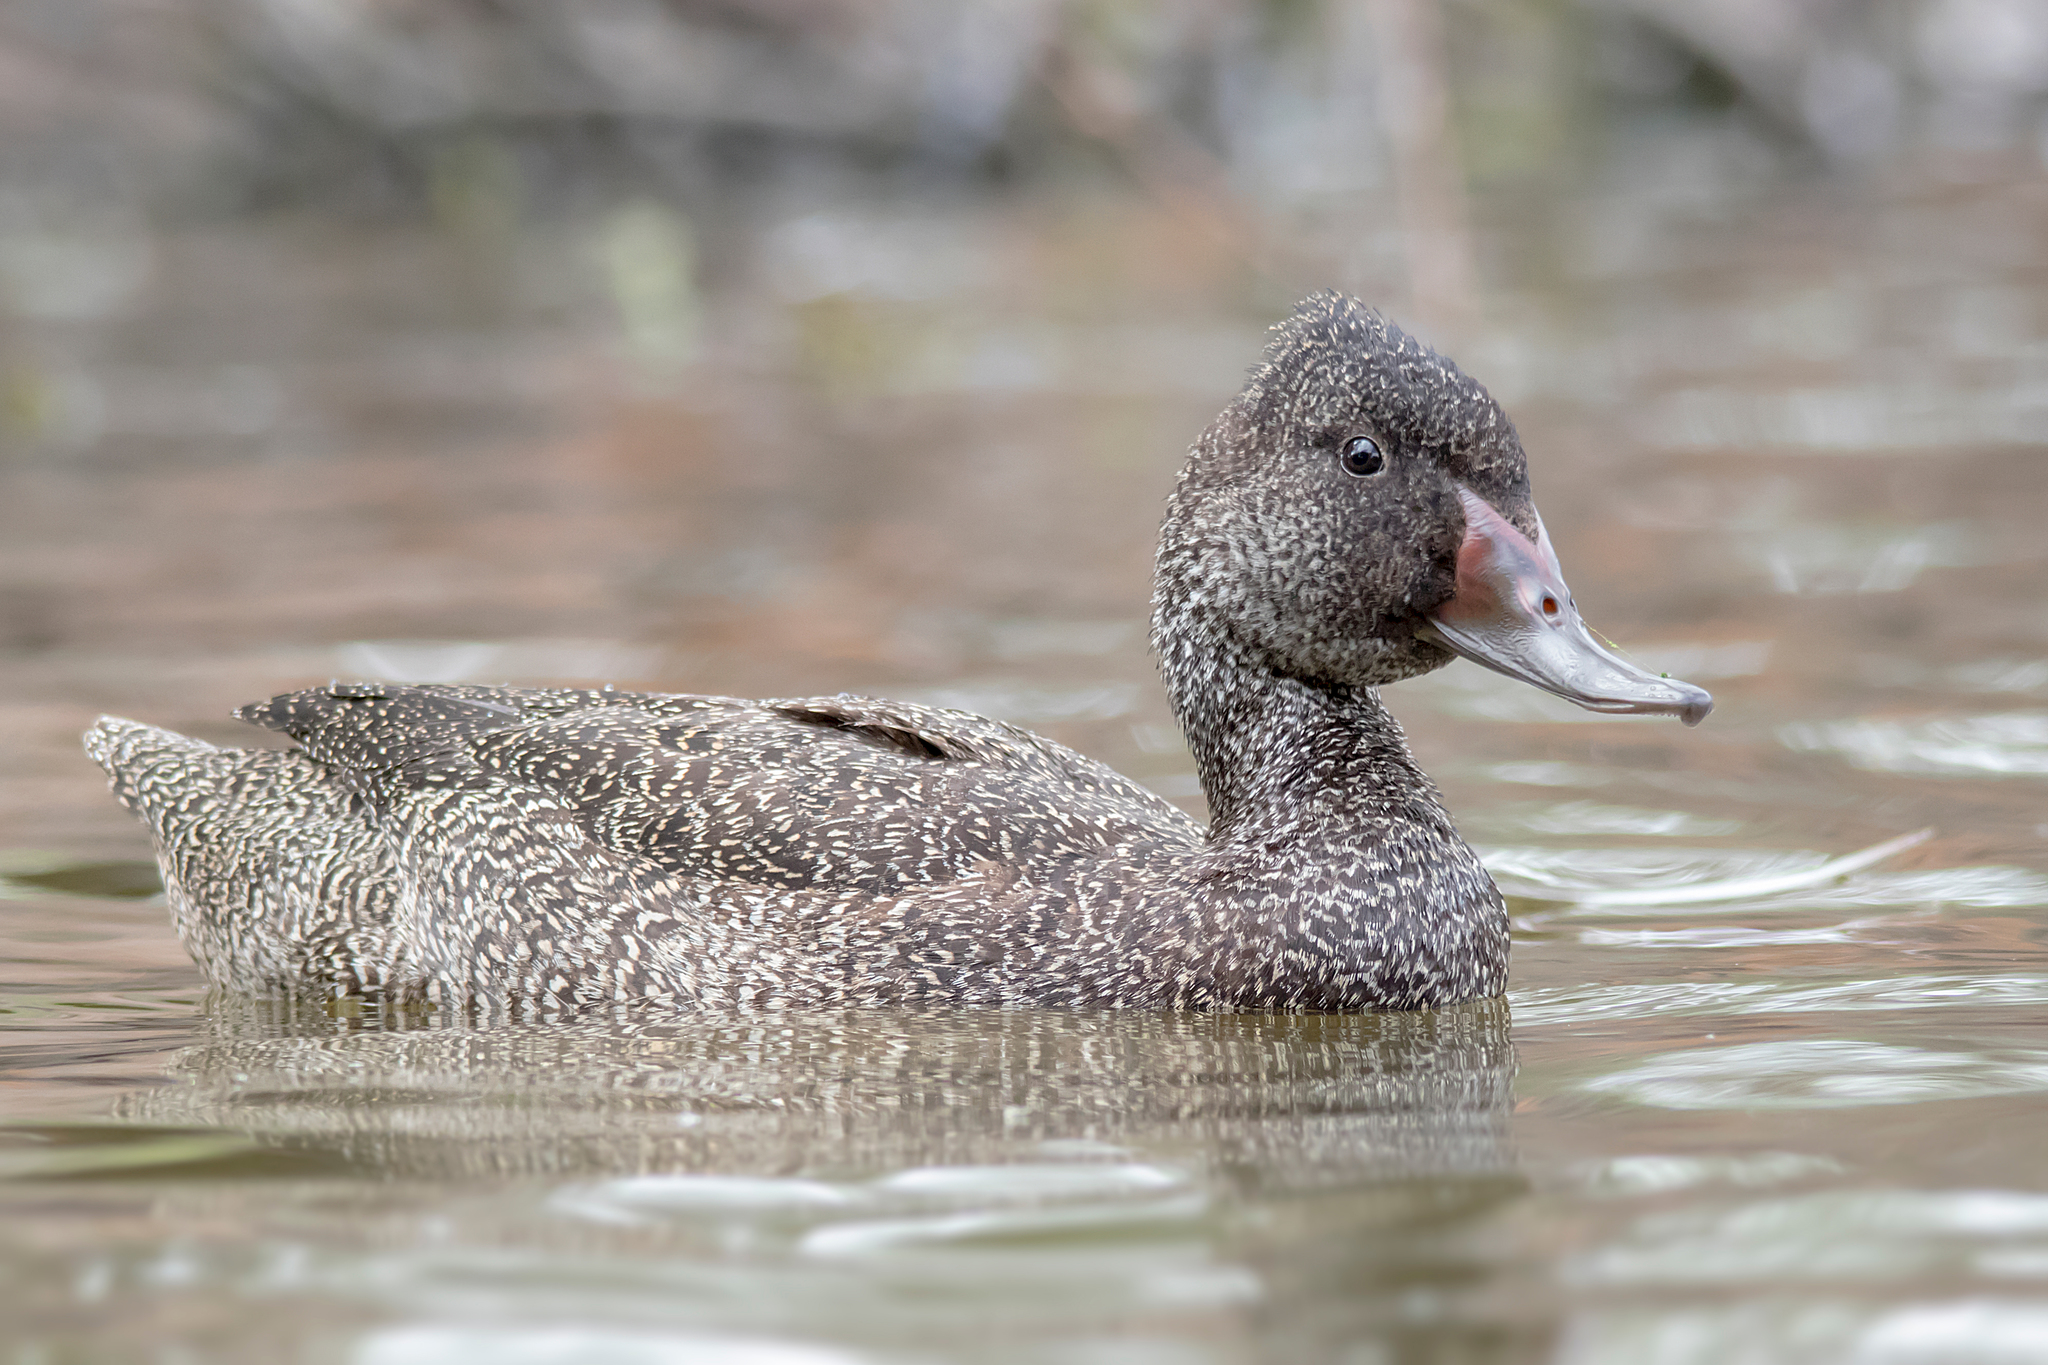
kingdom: Animalia
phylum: Chordata
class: Aves
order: Anseriformes
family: Anatidae
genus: Stictonetta
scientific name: Stictonetta naevosa
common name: Freckled duck
